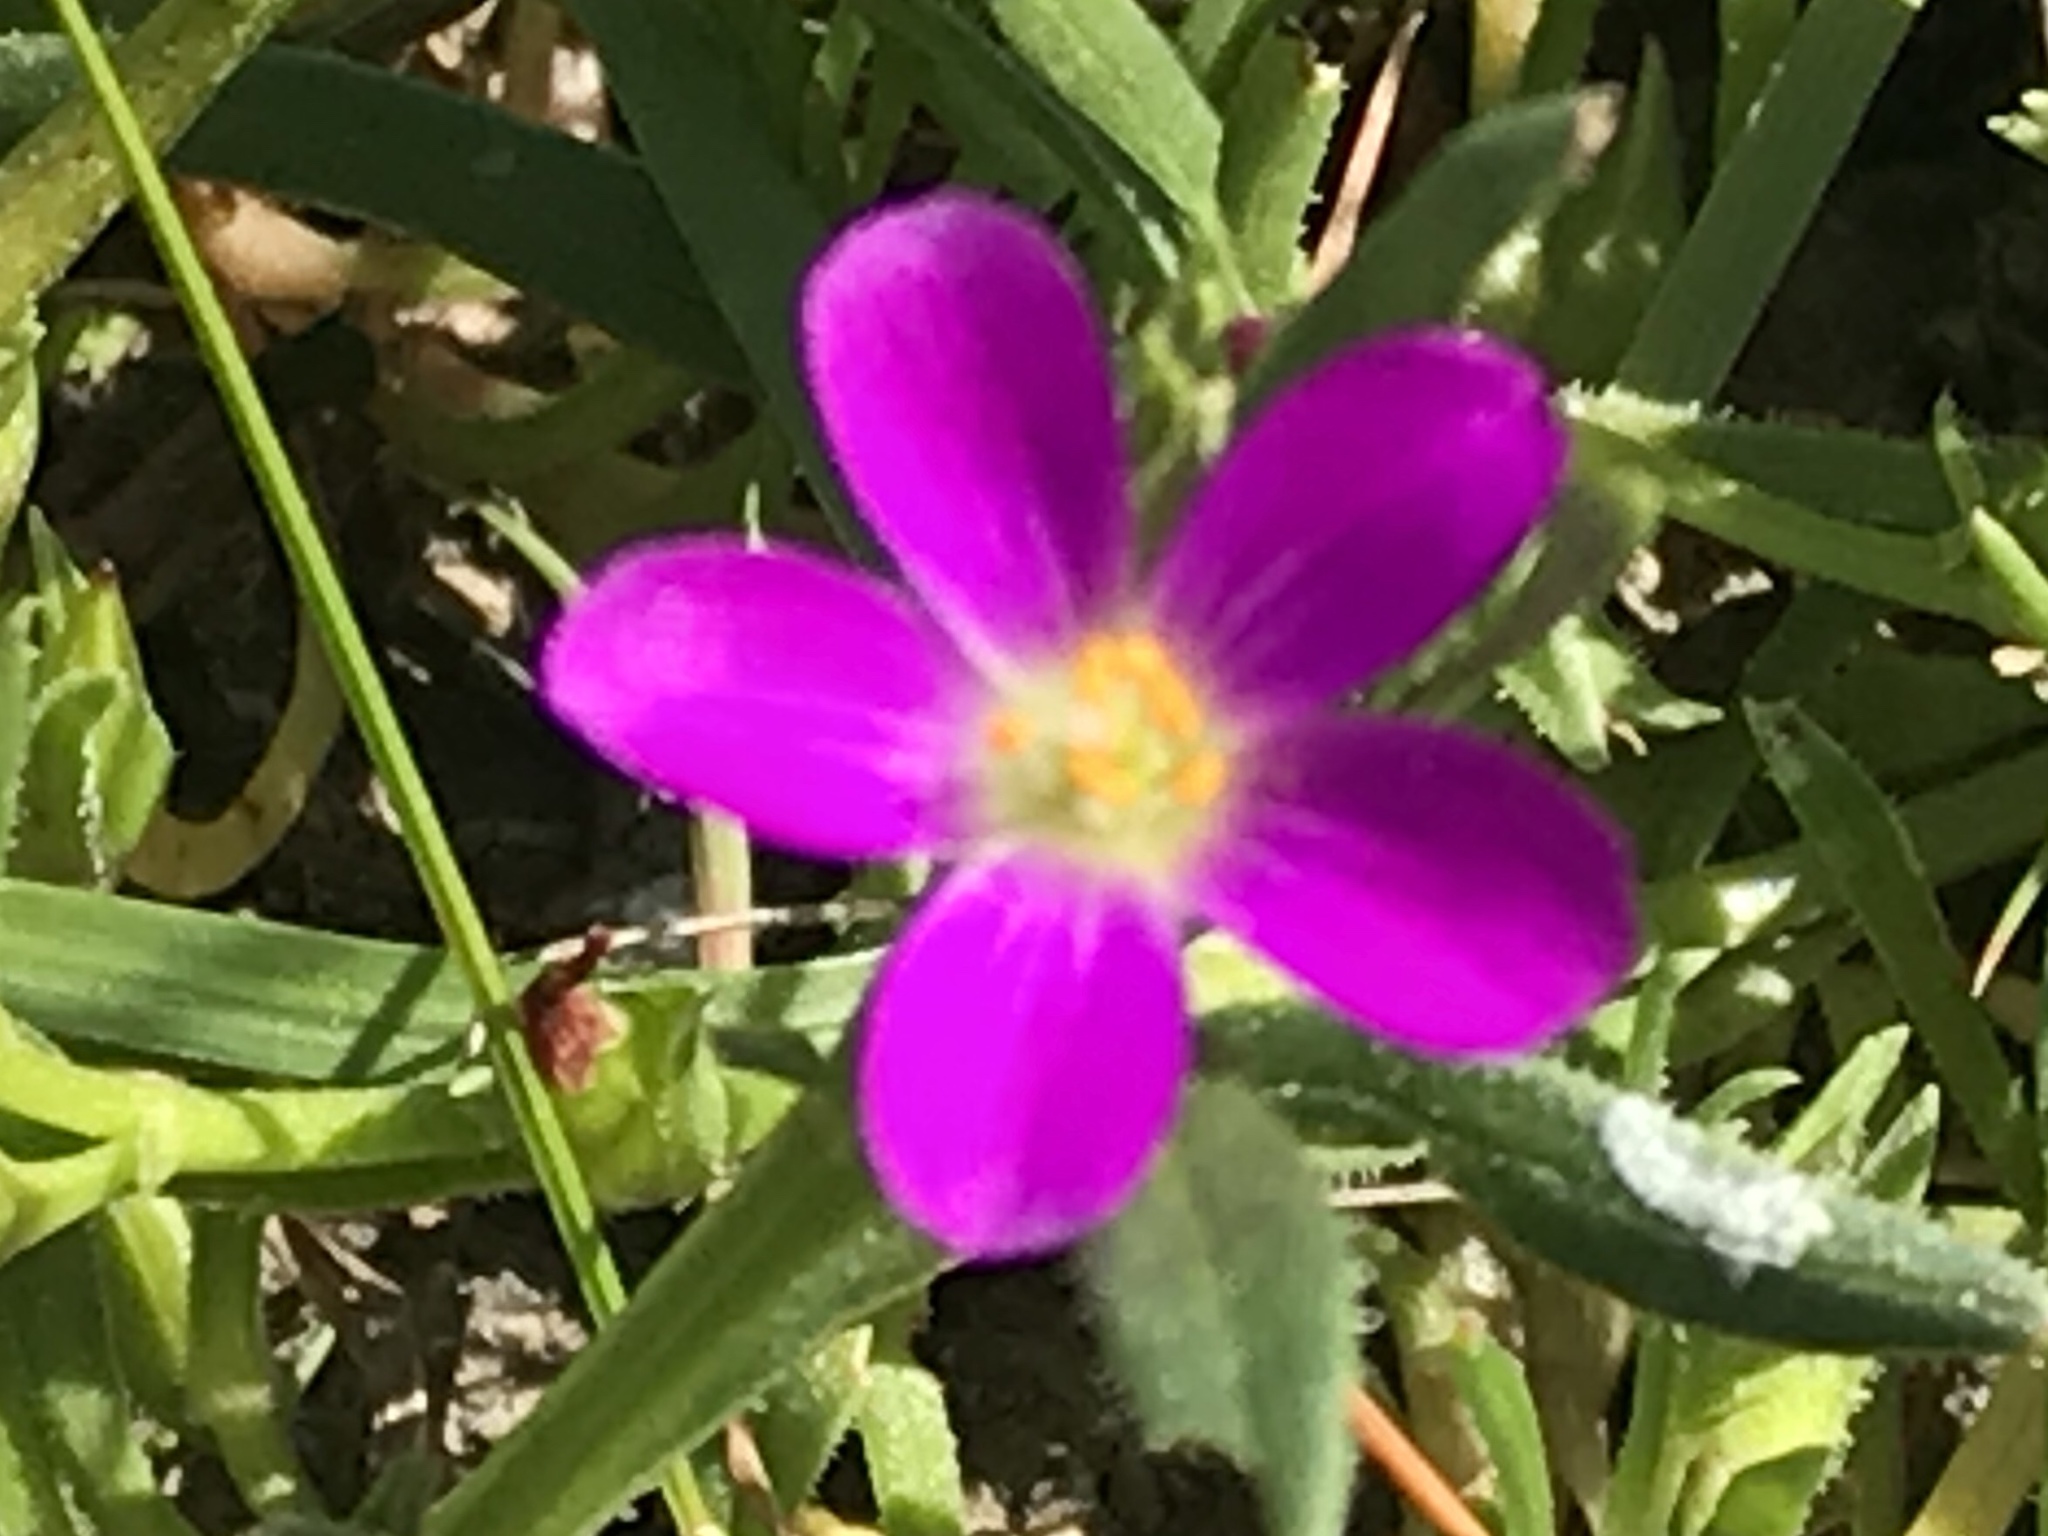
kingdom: Plantae
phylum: Tracheophyta
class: Magnoliopsida
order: Caryophyllales
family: Montiaceae
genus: Calandrinia
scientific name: Calandrinia menziesii
